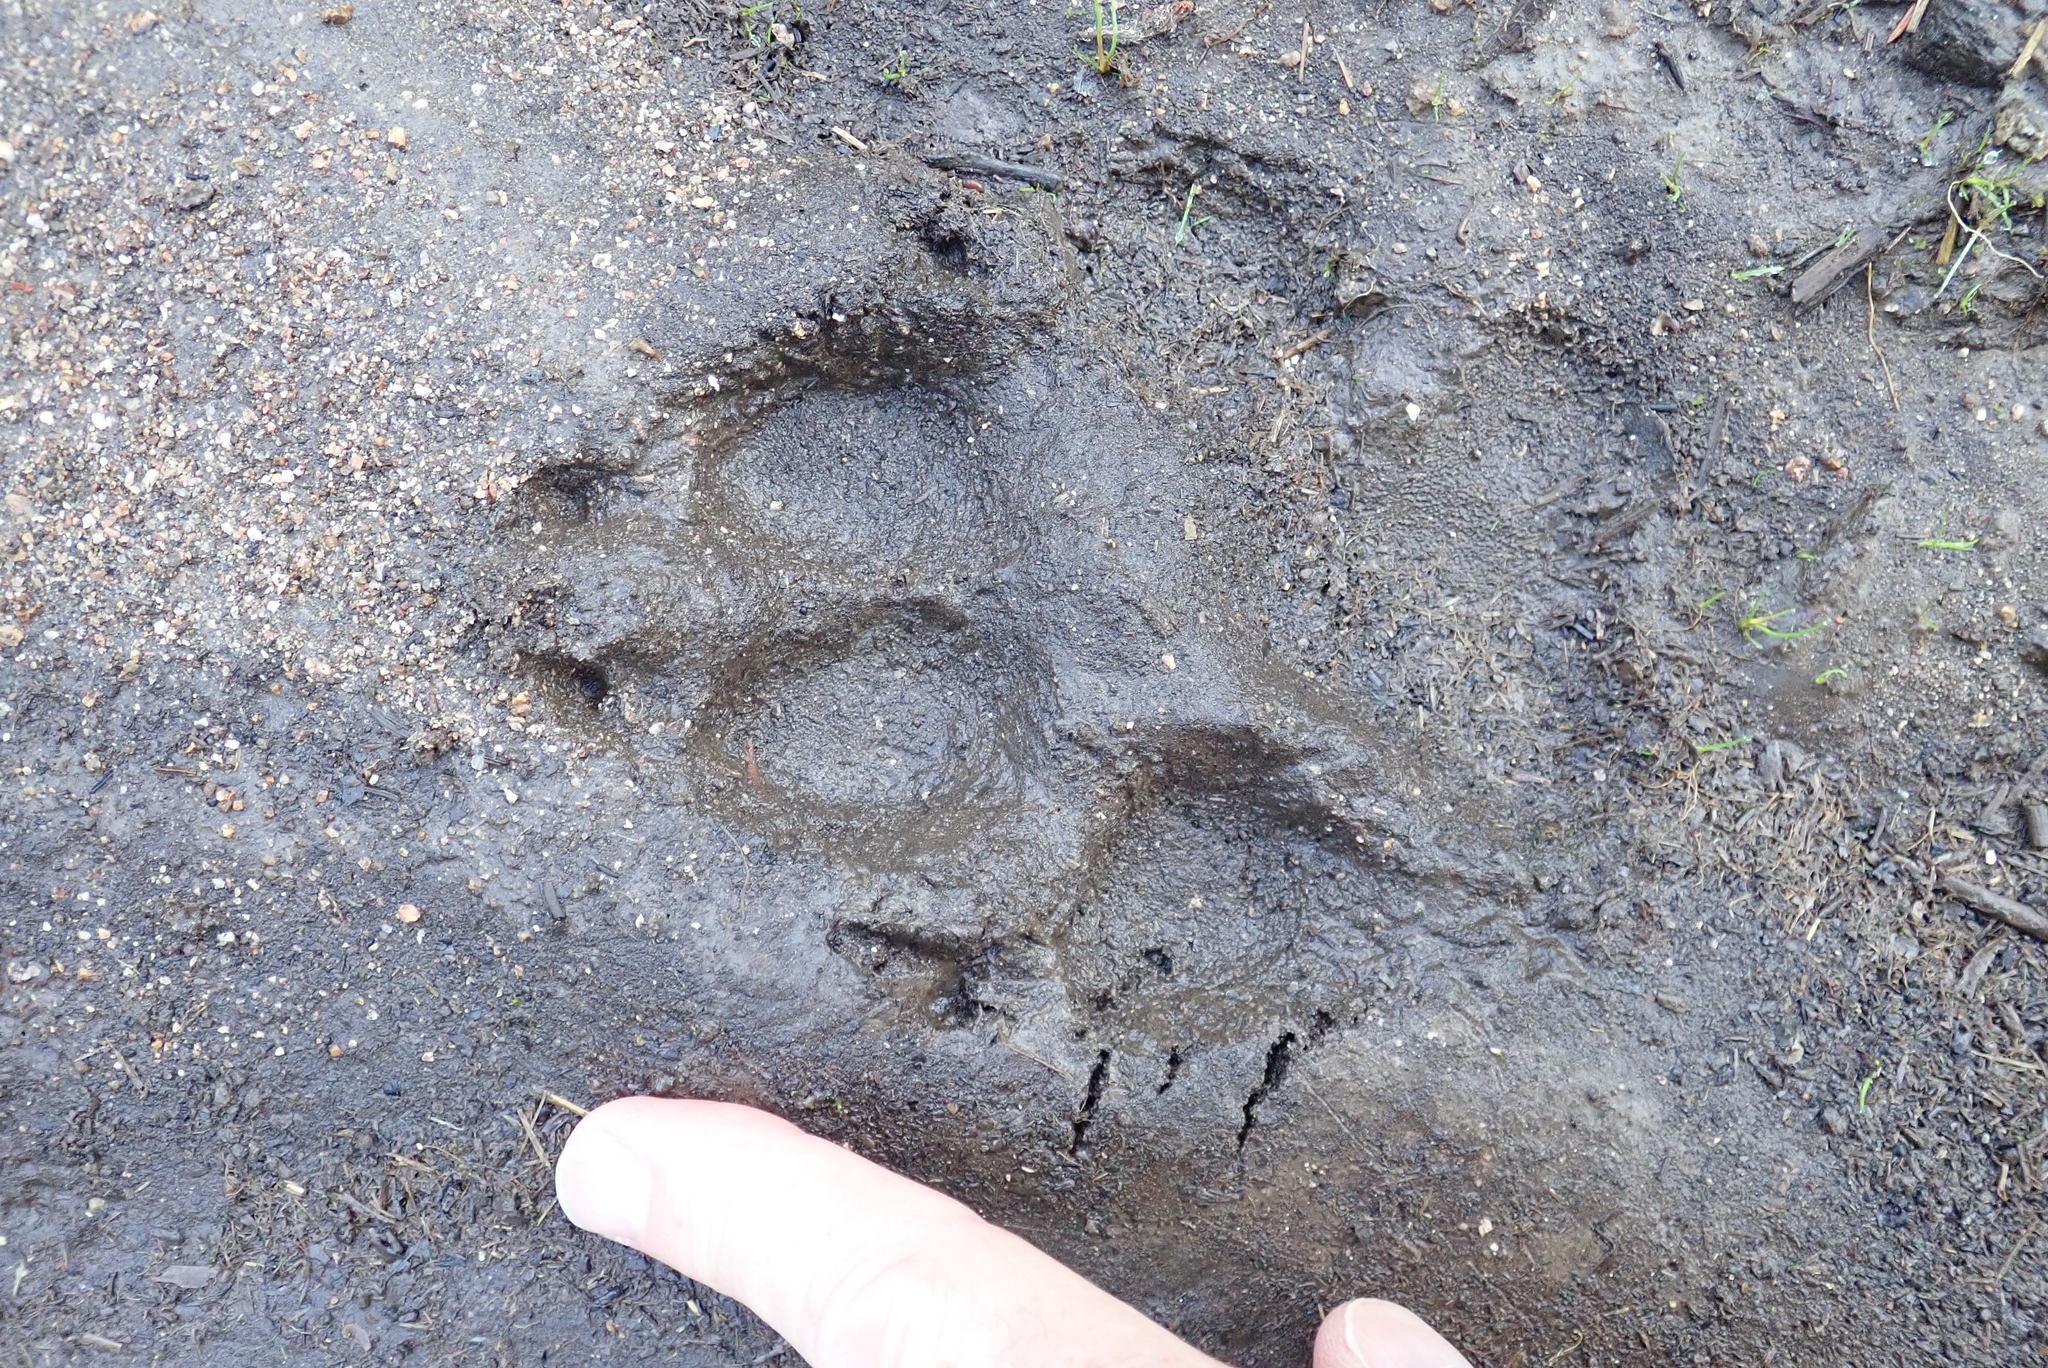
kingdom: Animalia
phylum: Chordata
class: Mammalia
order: Carnivora
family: Canidae
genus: Canis
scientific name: Canis lupus
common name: Gray wolf
